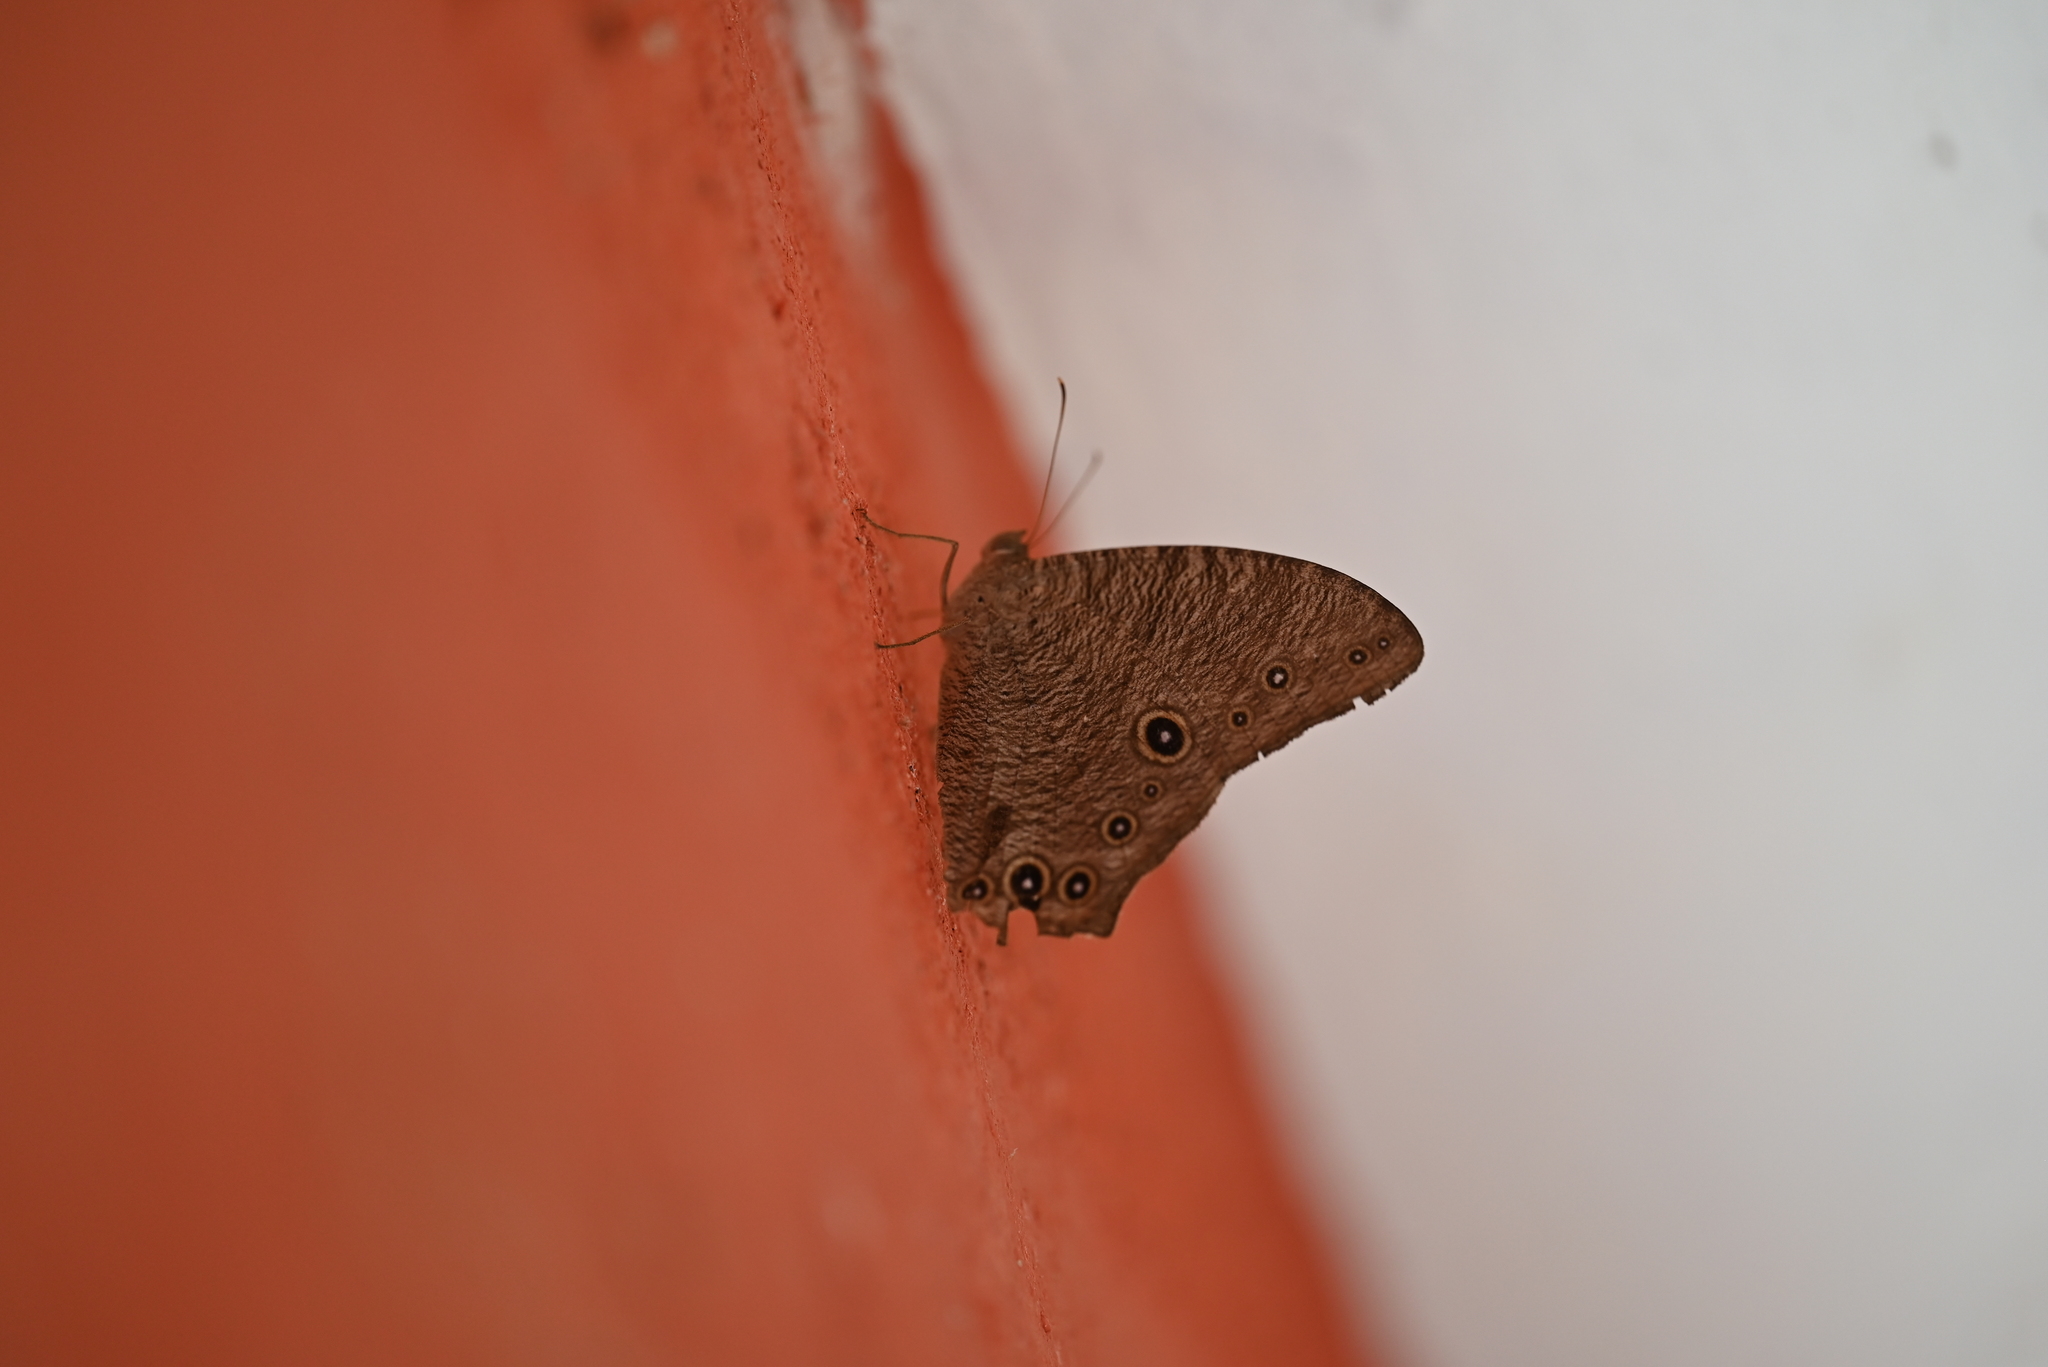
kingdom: Animalia
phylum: Arthropoda
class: Insecta
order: Lepidoptera
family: Nymphalidae
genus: Melanitis
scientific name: Melanitis leda
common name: Twilight brown
